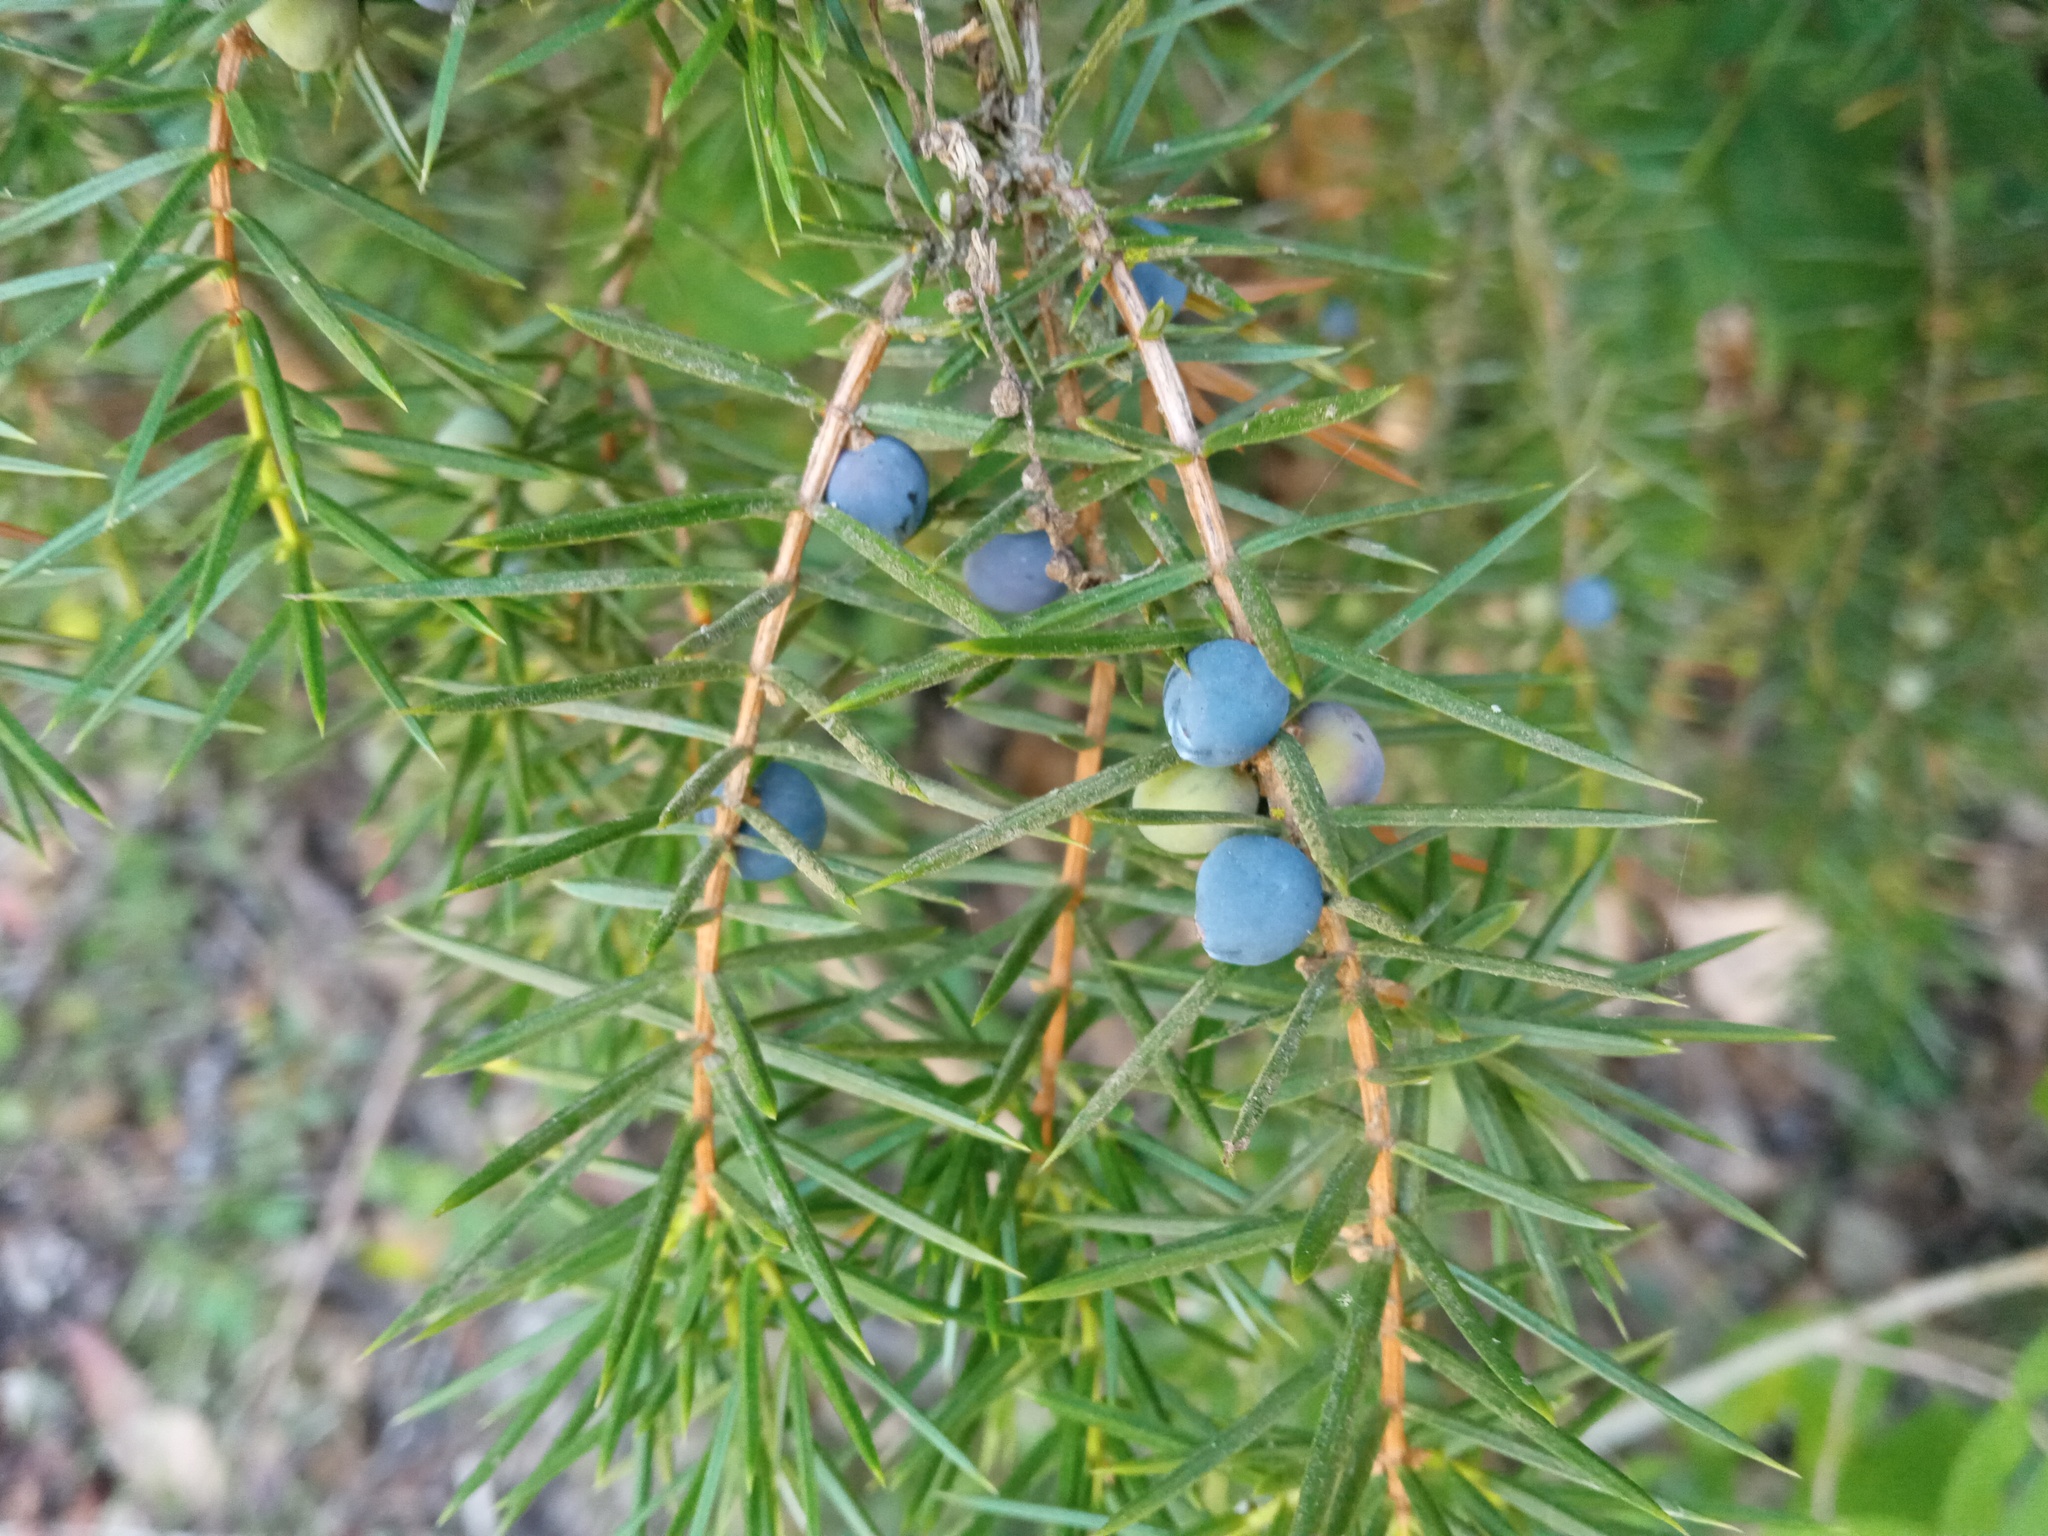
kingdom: Plantae
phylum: Tracheophyta
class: Pinopsida
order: Pinales
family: Cupressaceae
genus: Juniperus
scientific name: Juniperus communis
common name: Common juniper
